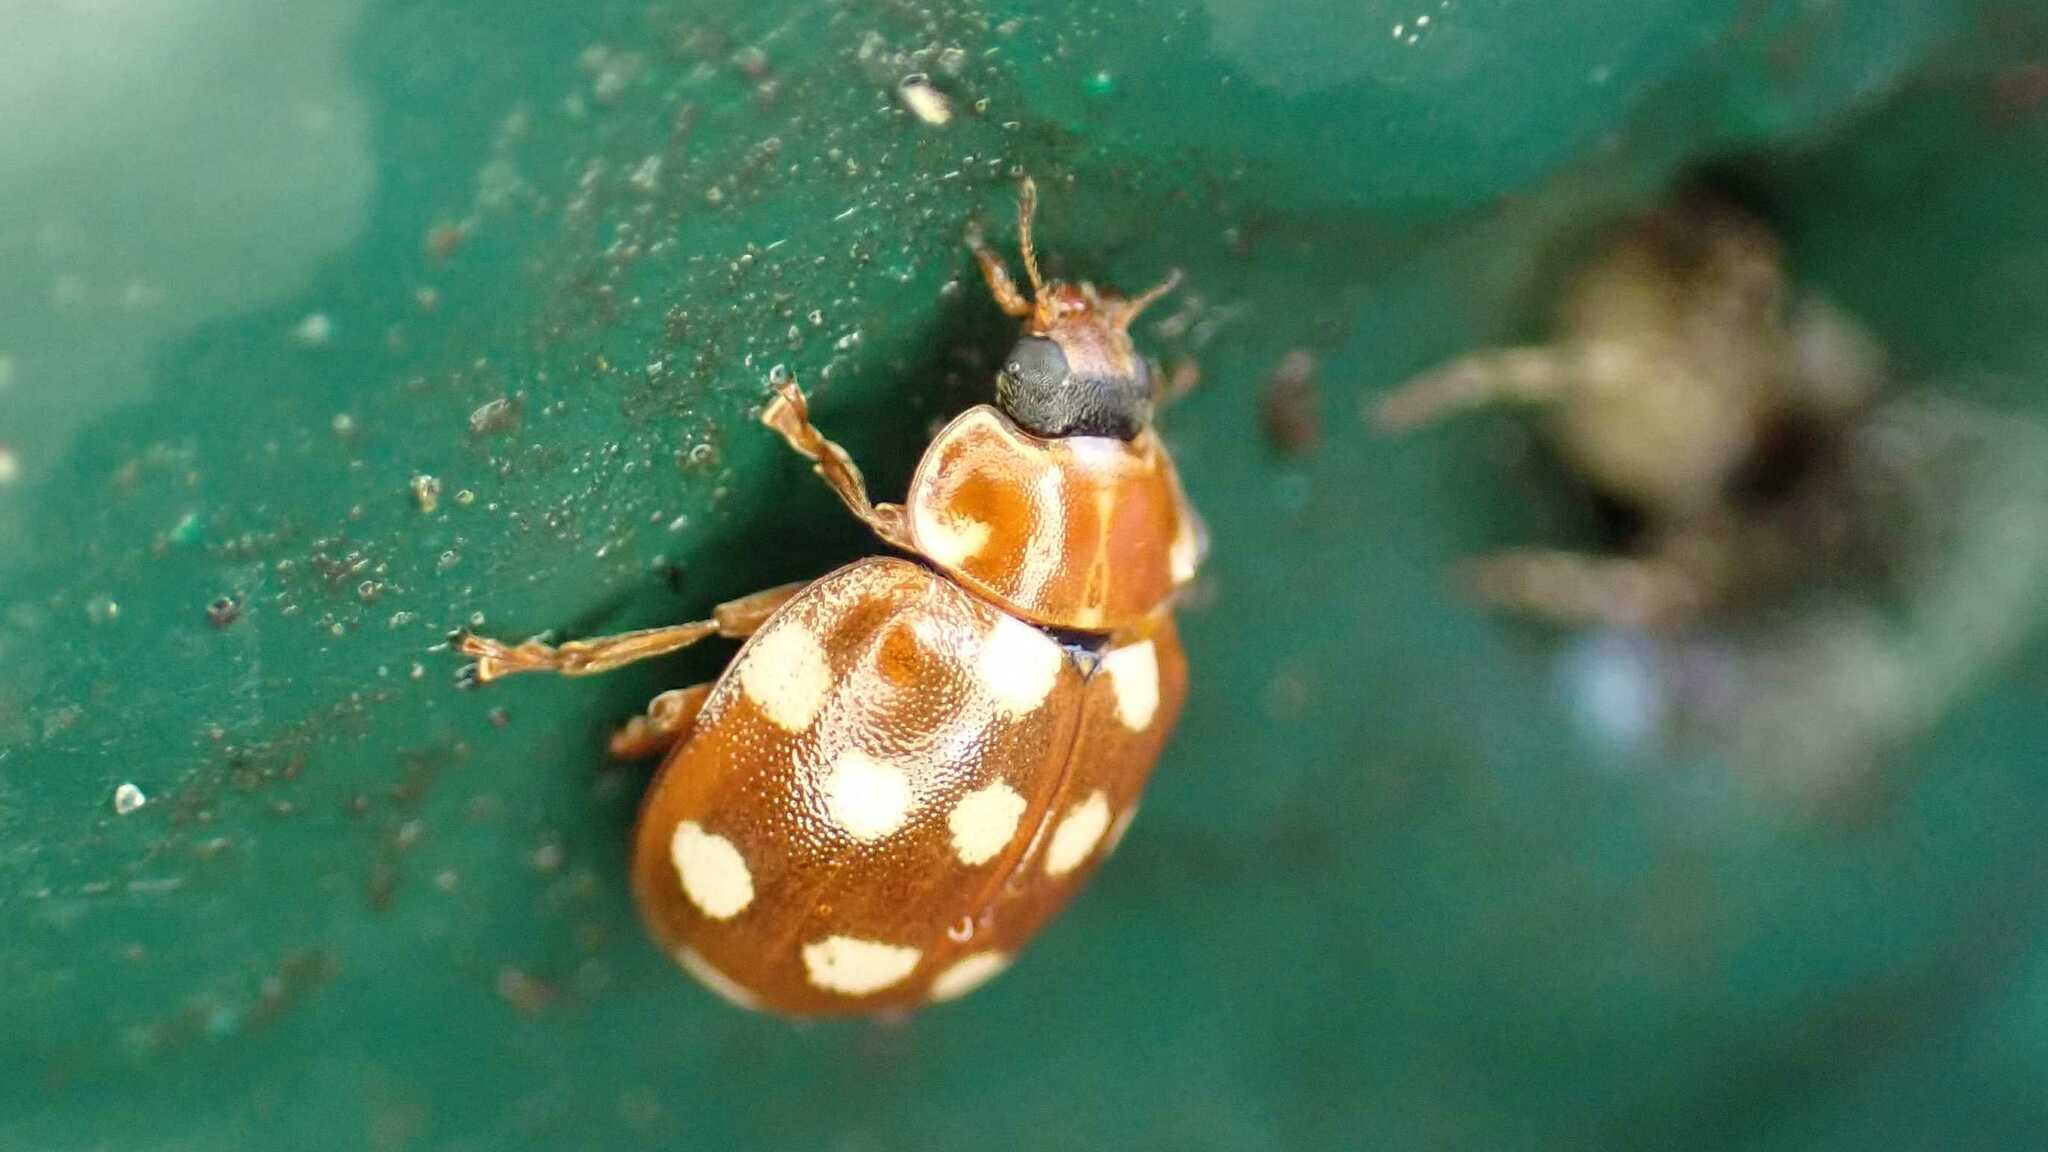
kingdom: Animalia
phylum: Arthropoda
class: Insecta
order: Coleoptera
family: Coccinellidae
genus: Calvia
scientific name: Calvia quatuordecimguttata
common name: Cream-spot ladybird
